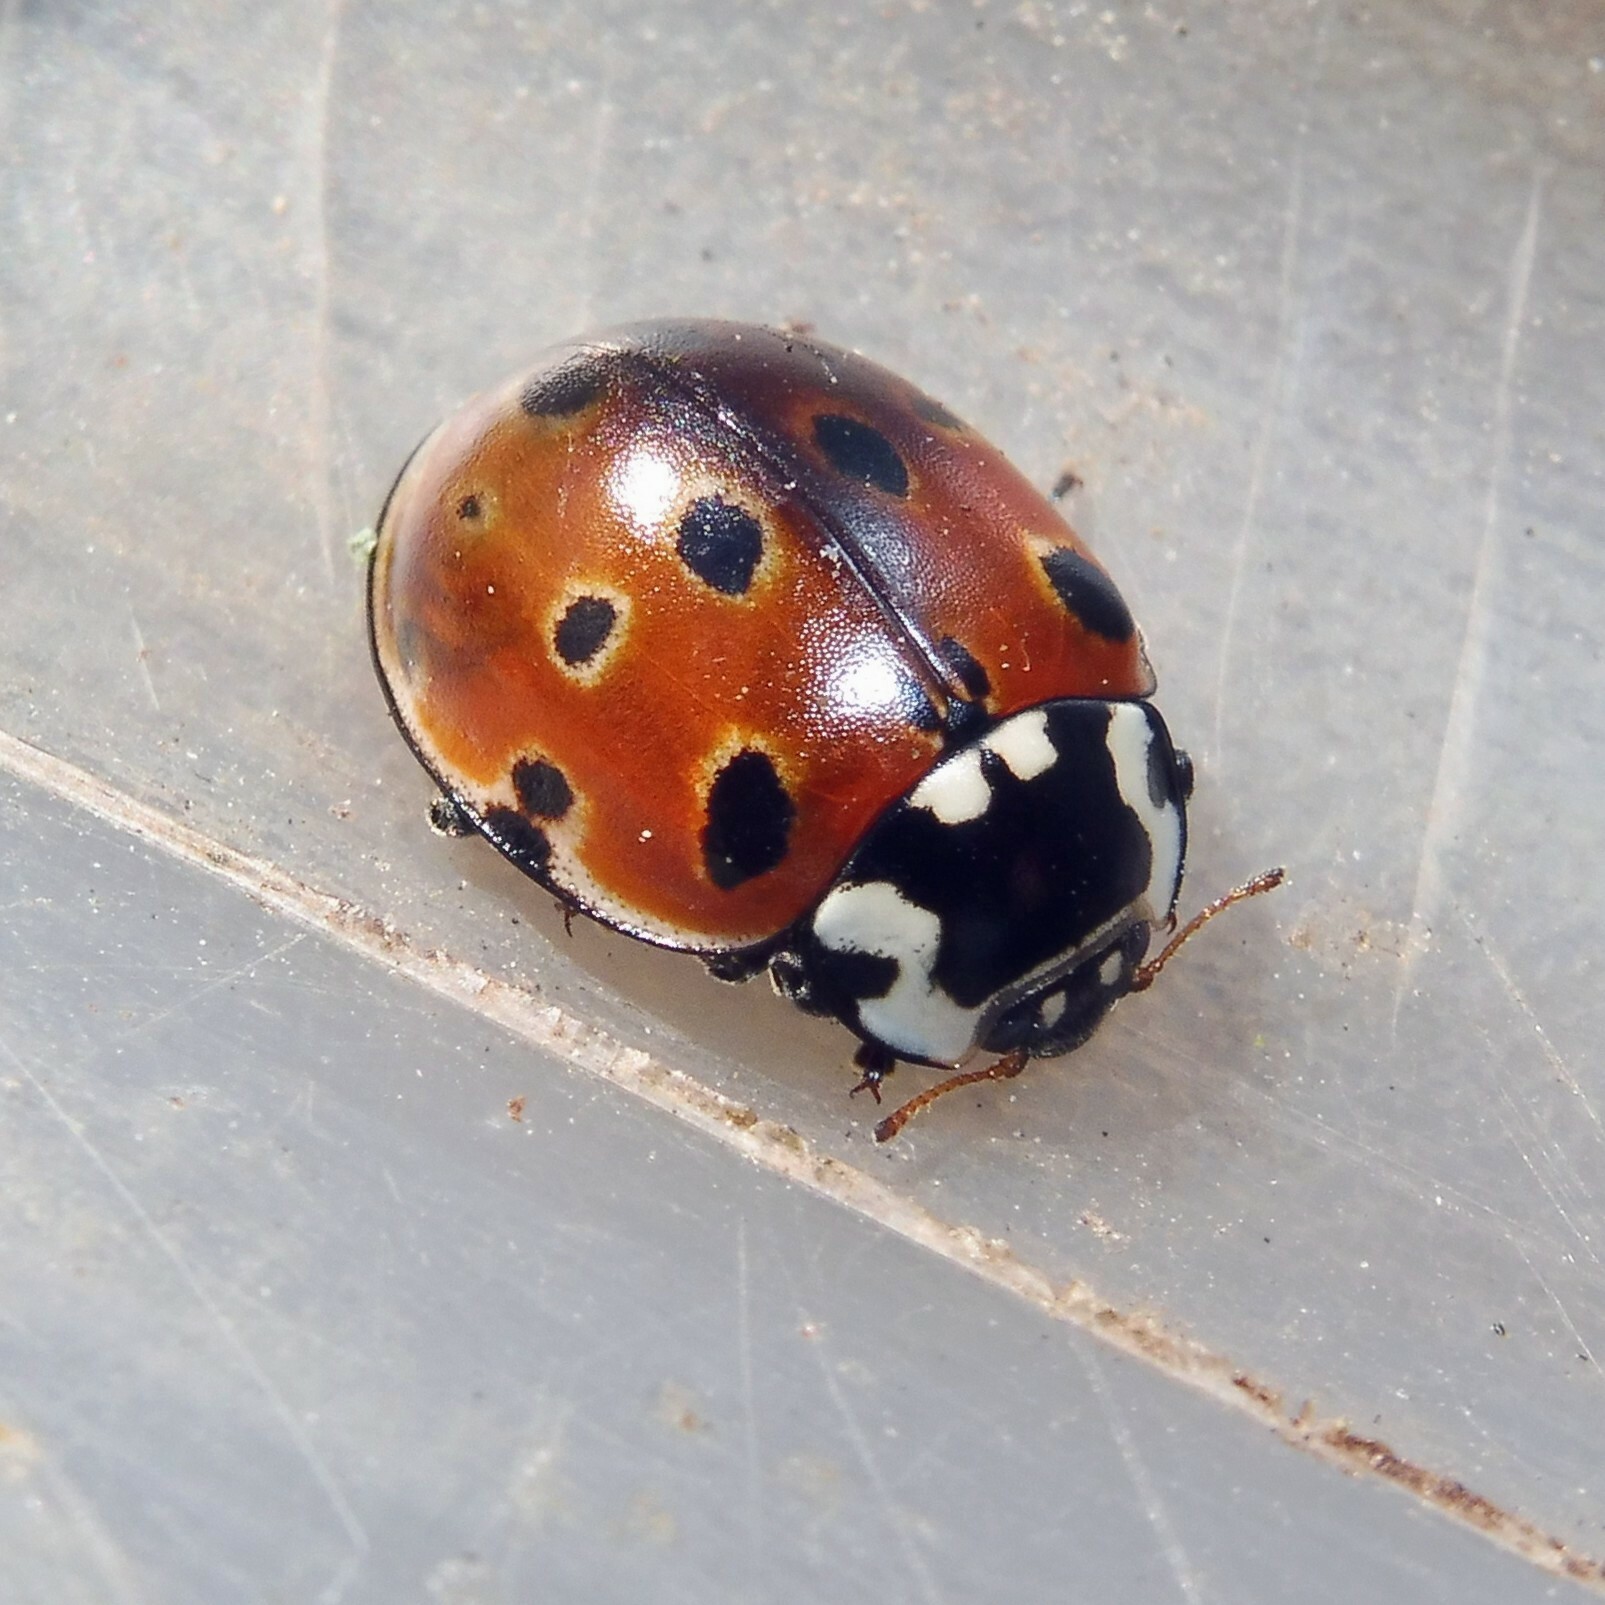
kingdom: Animalia
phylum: Arthropoda
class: Insecta
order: Coleoptera
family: Coccinellidae
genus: Anatis
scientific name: Anatis ocellata
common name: Eyed ladybird
